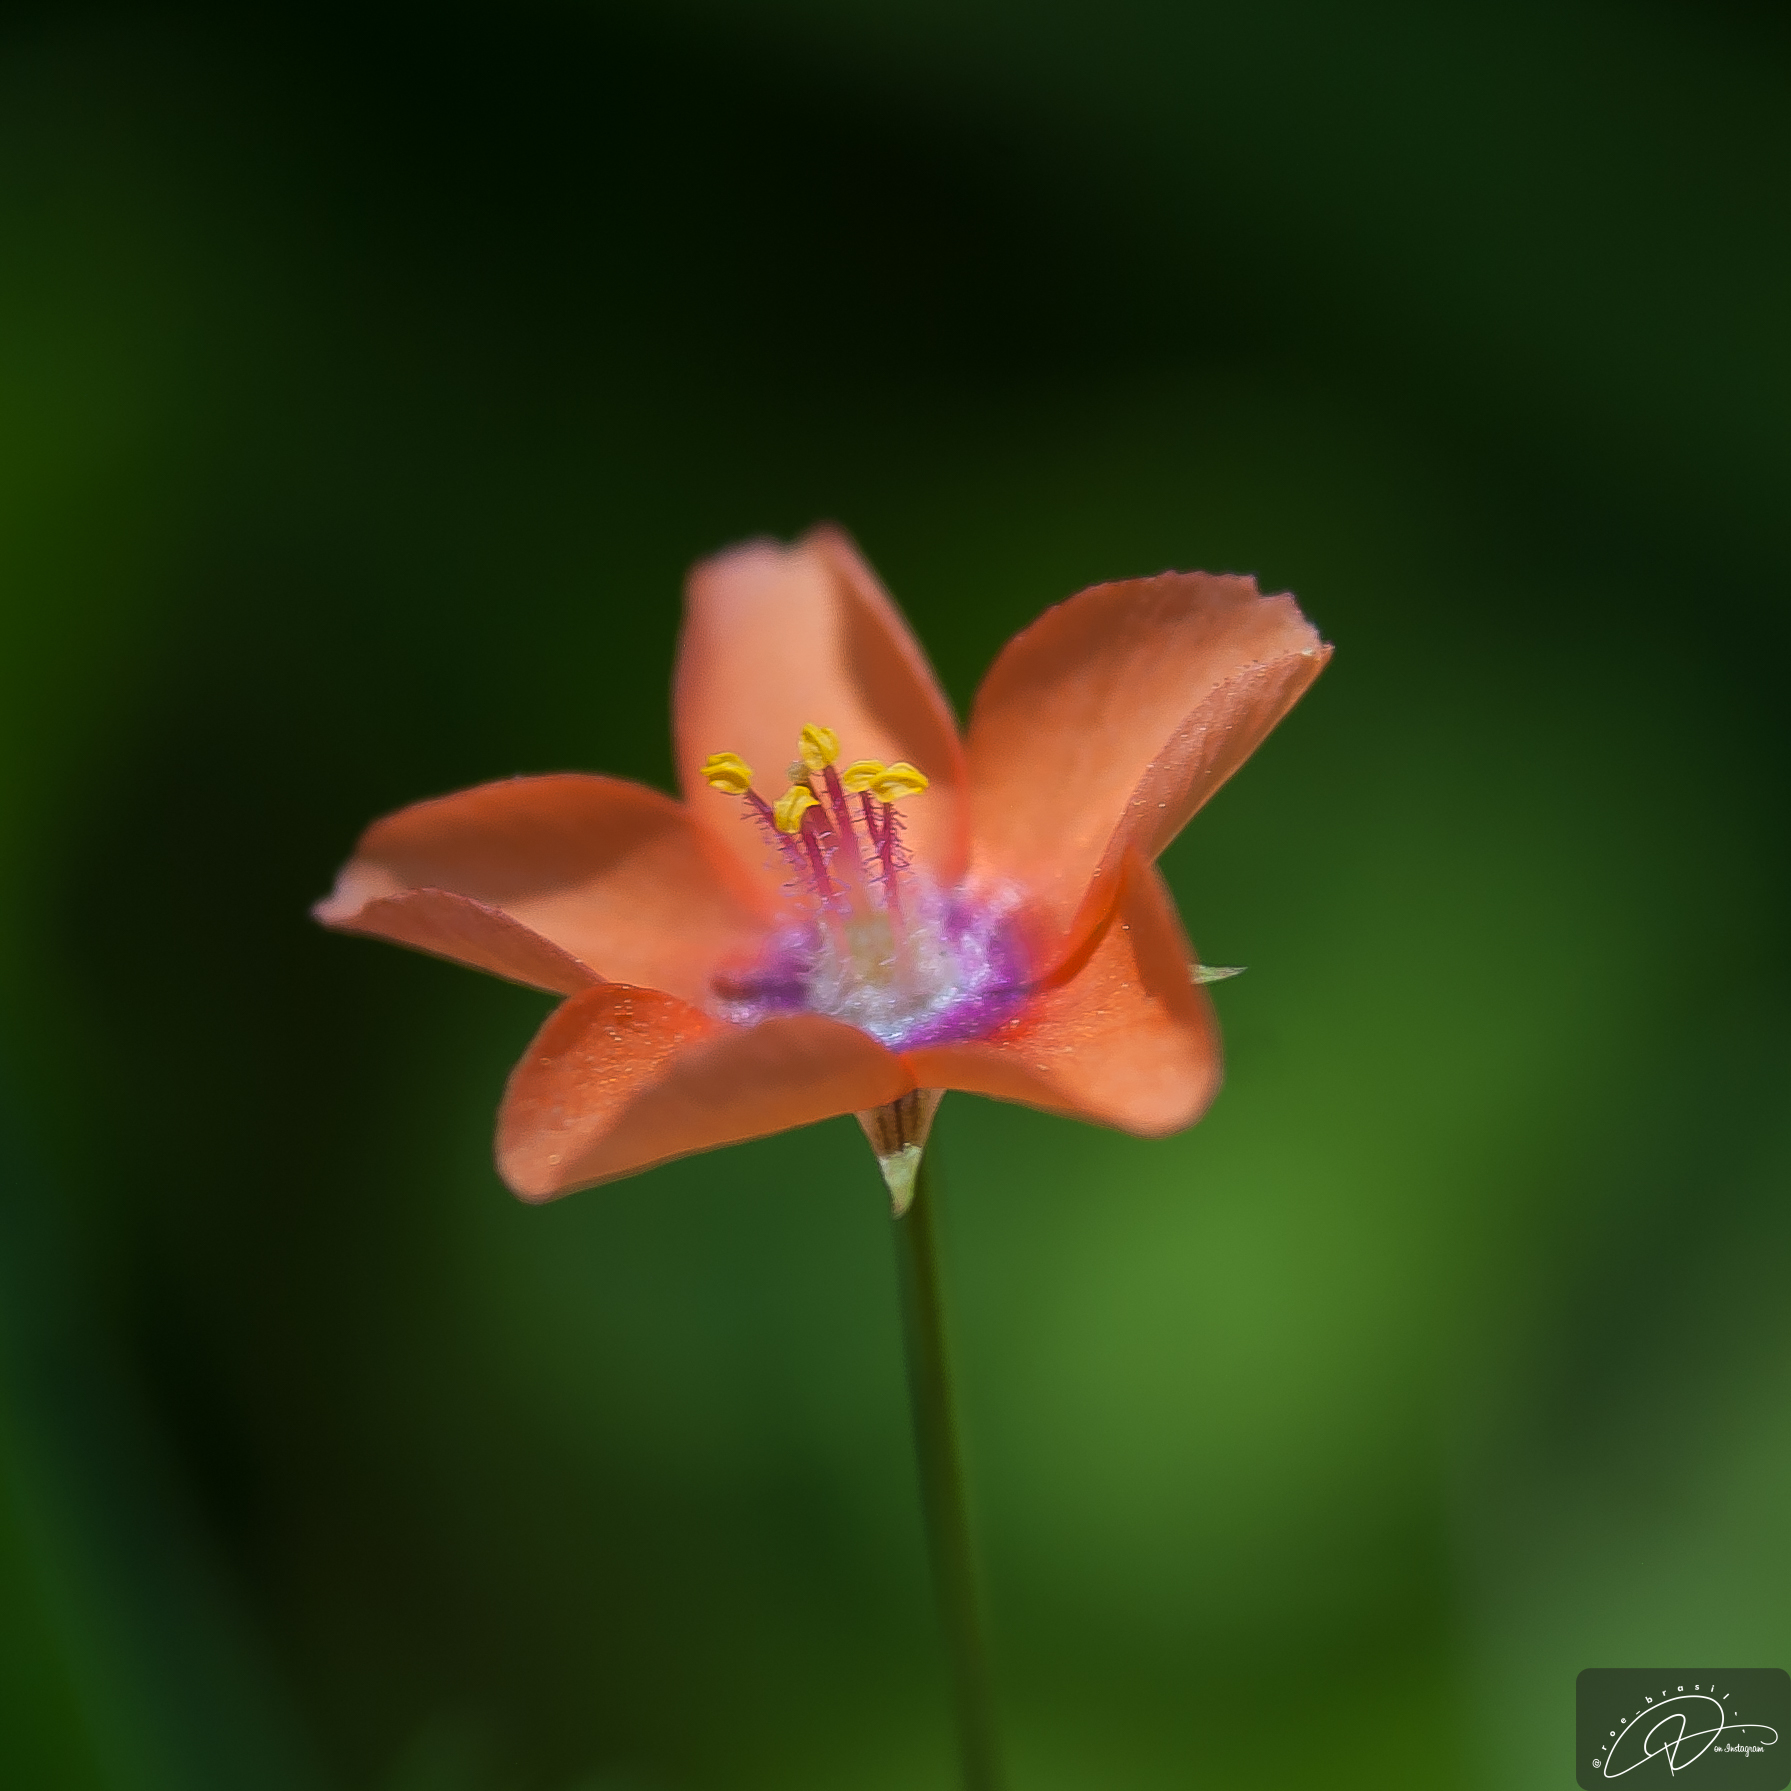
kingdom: Plantae
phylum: Tracheophyta
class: Magnoliopsida
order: Ericales
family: Primulaceae
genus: Lysimachia
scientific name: Lysimachia arvensis
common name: Scarlet pimpernel
